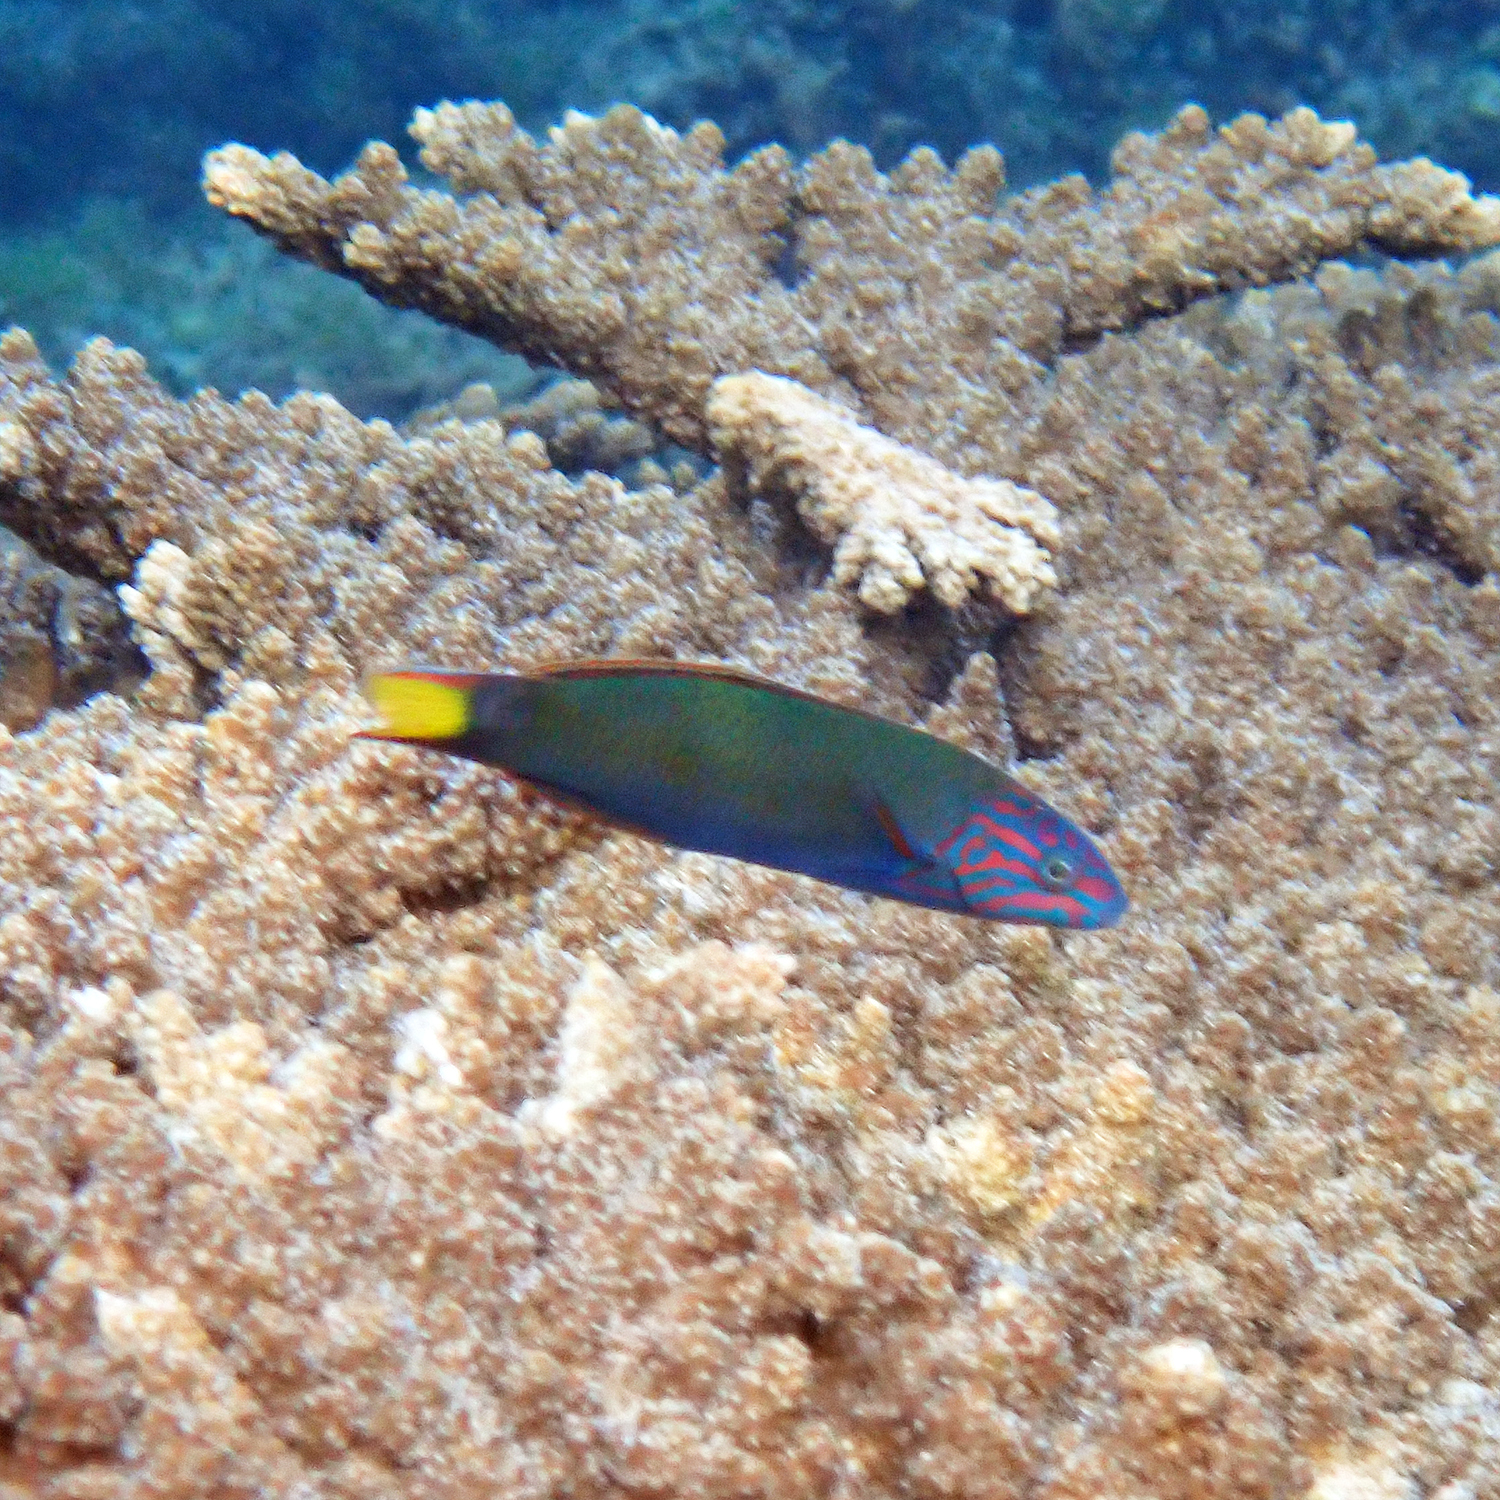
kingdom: Animalia
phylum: Chordata
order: Perciformes
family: Labridae
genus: Thalassoma
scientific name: Thalassoma lunare
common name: Blue wrasse
